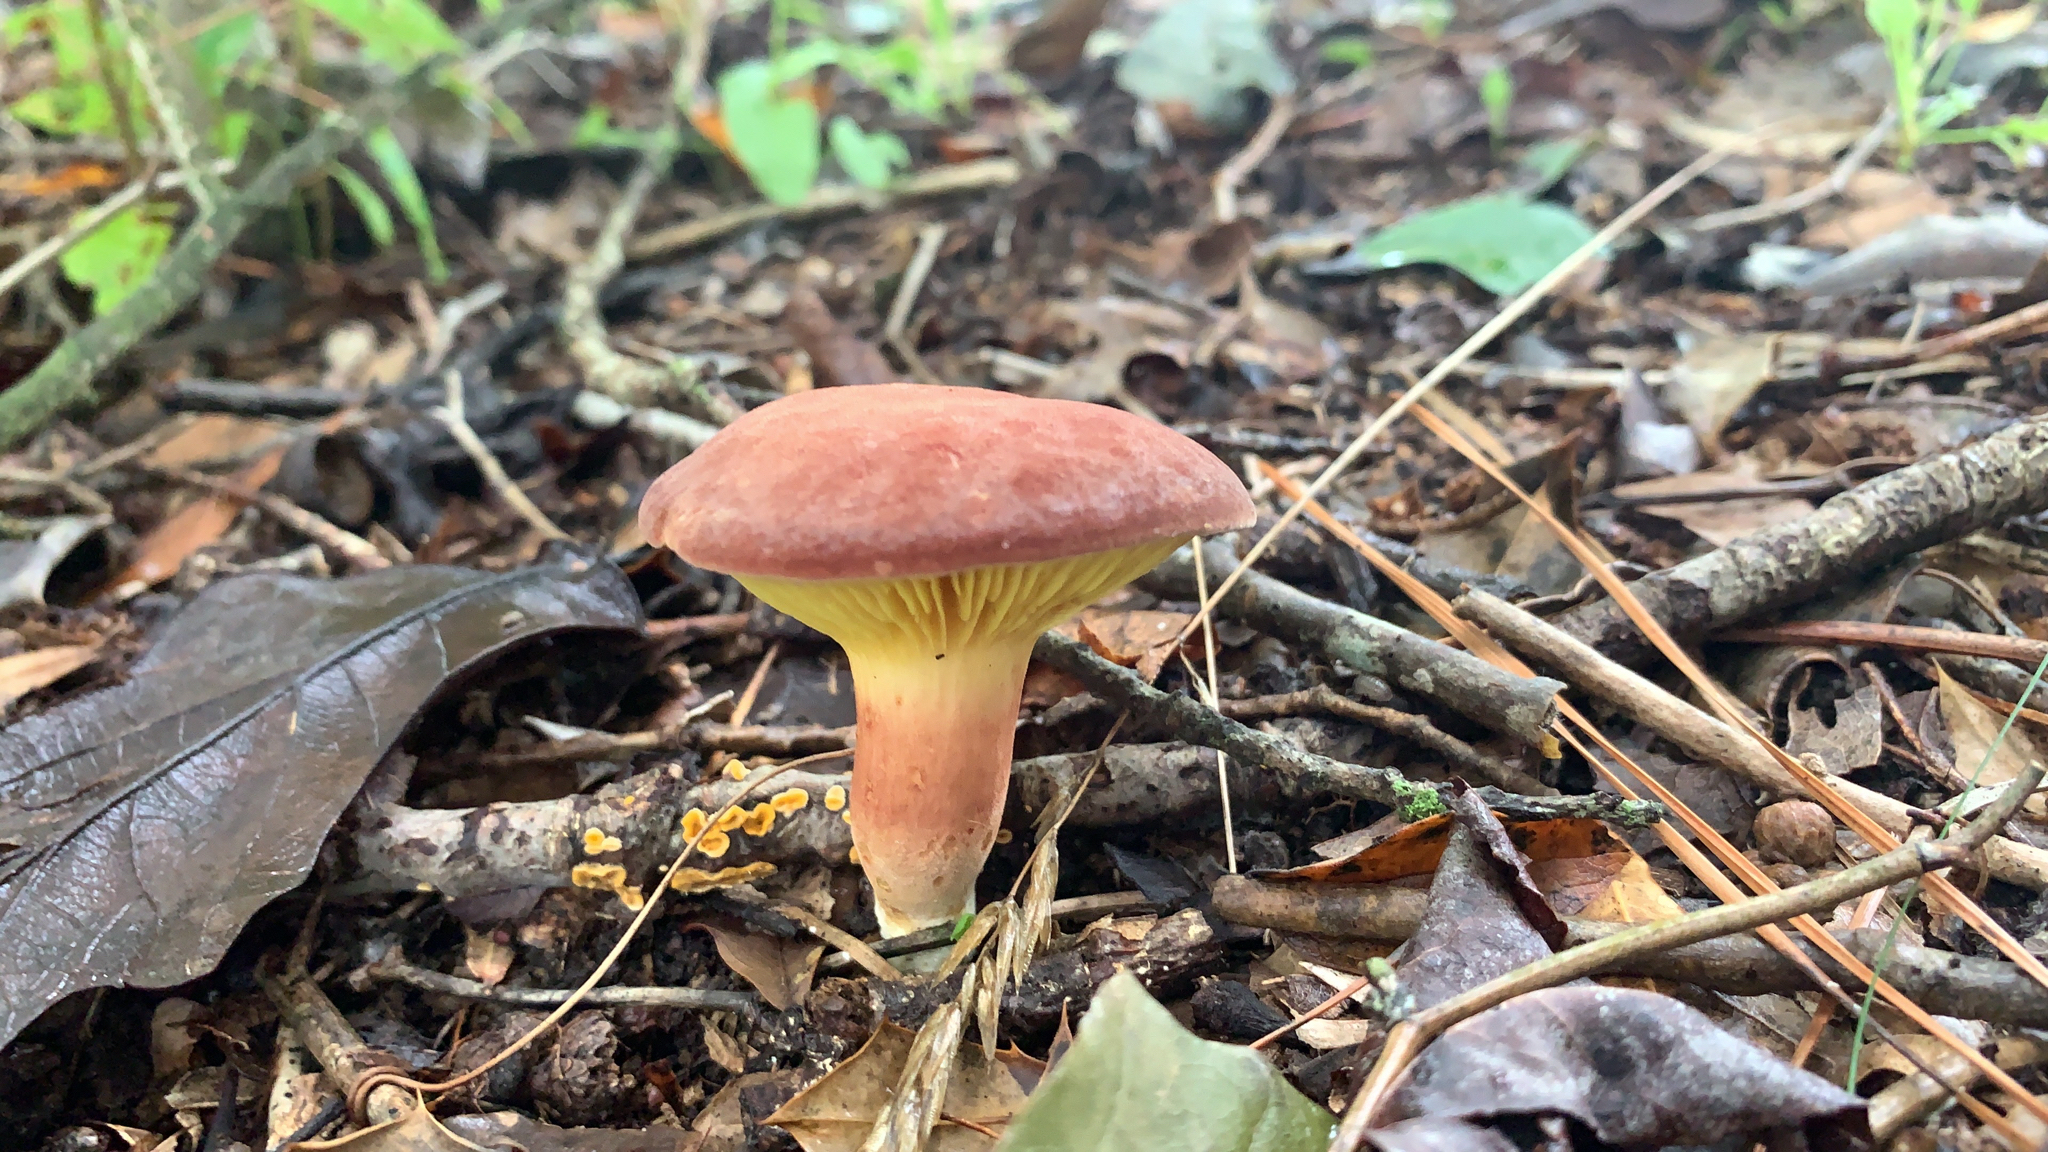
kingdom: Fungi
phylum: Basidiomycota
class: Agaricomycetes
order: Boletales
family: Boletaceae
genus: Phylloporus
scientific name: Phylloporus leucomycelinus
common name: Gilled bolete
